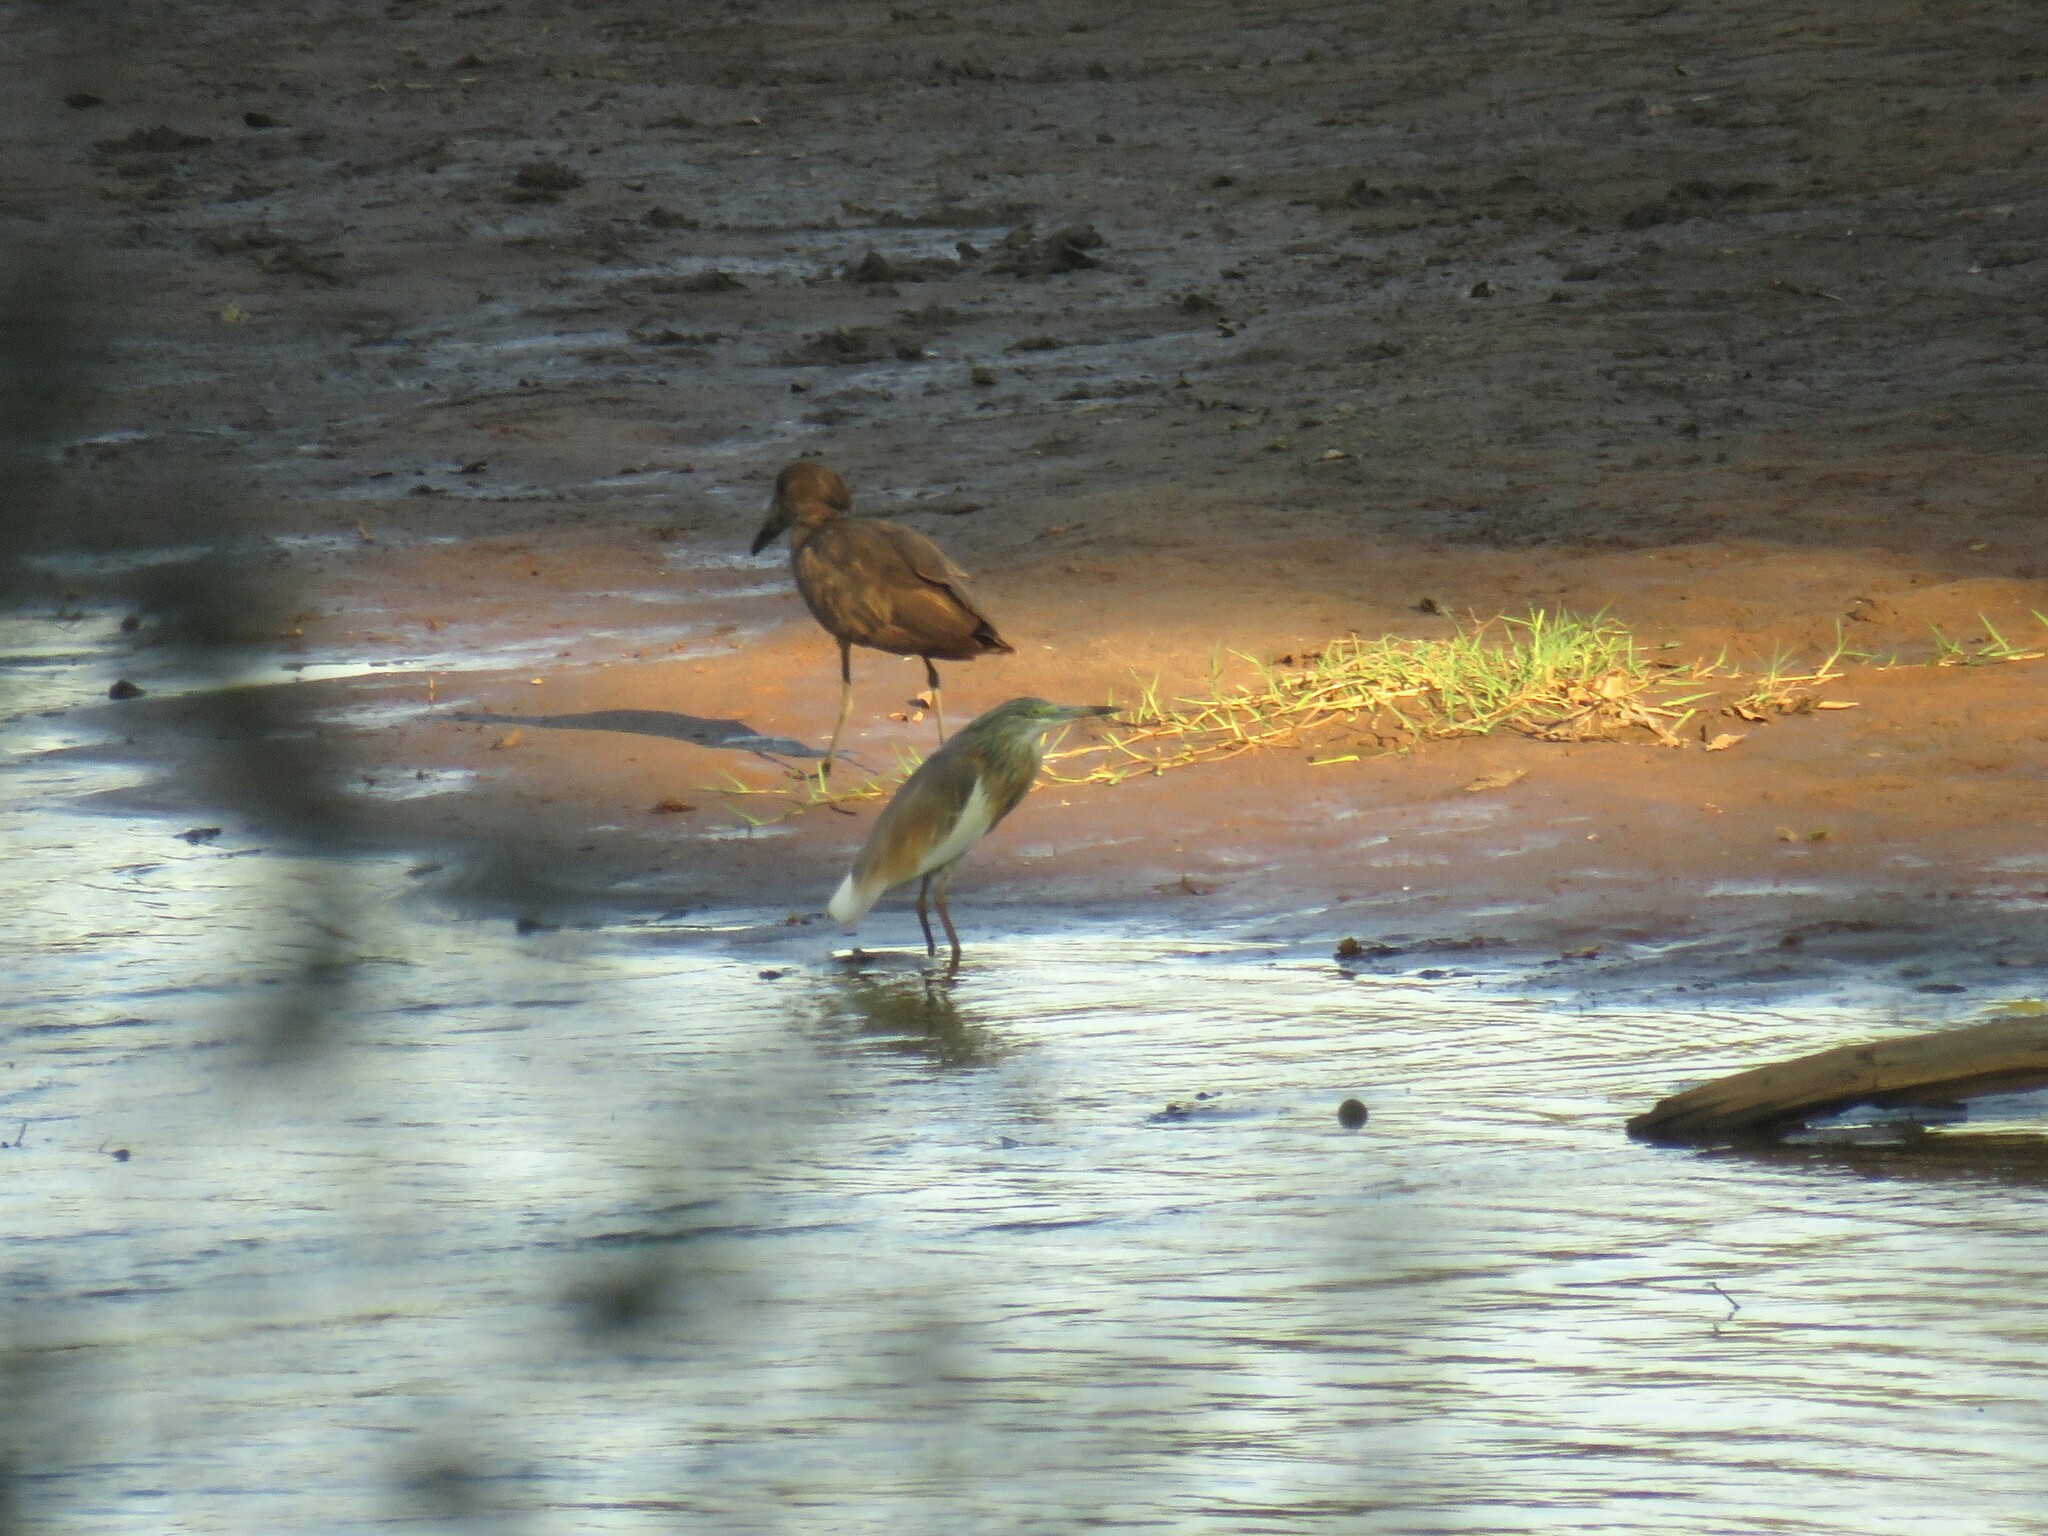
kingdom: Animalia
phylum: Chordata
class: Aves
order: Pelecaniformes
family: Ardeidae
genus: Ardeola
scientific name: Ardeola ralloides
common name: Squacco heron
